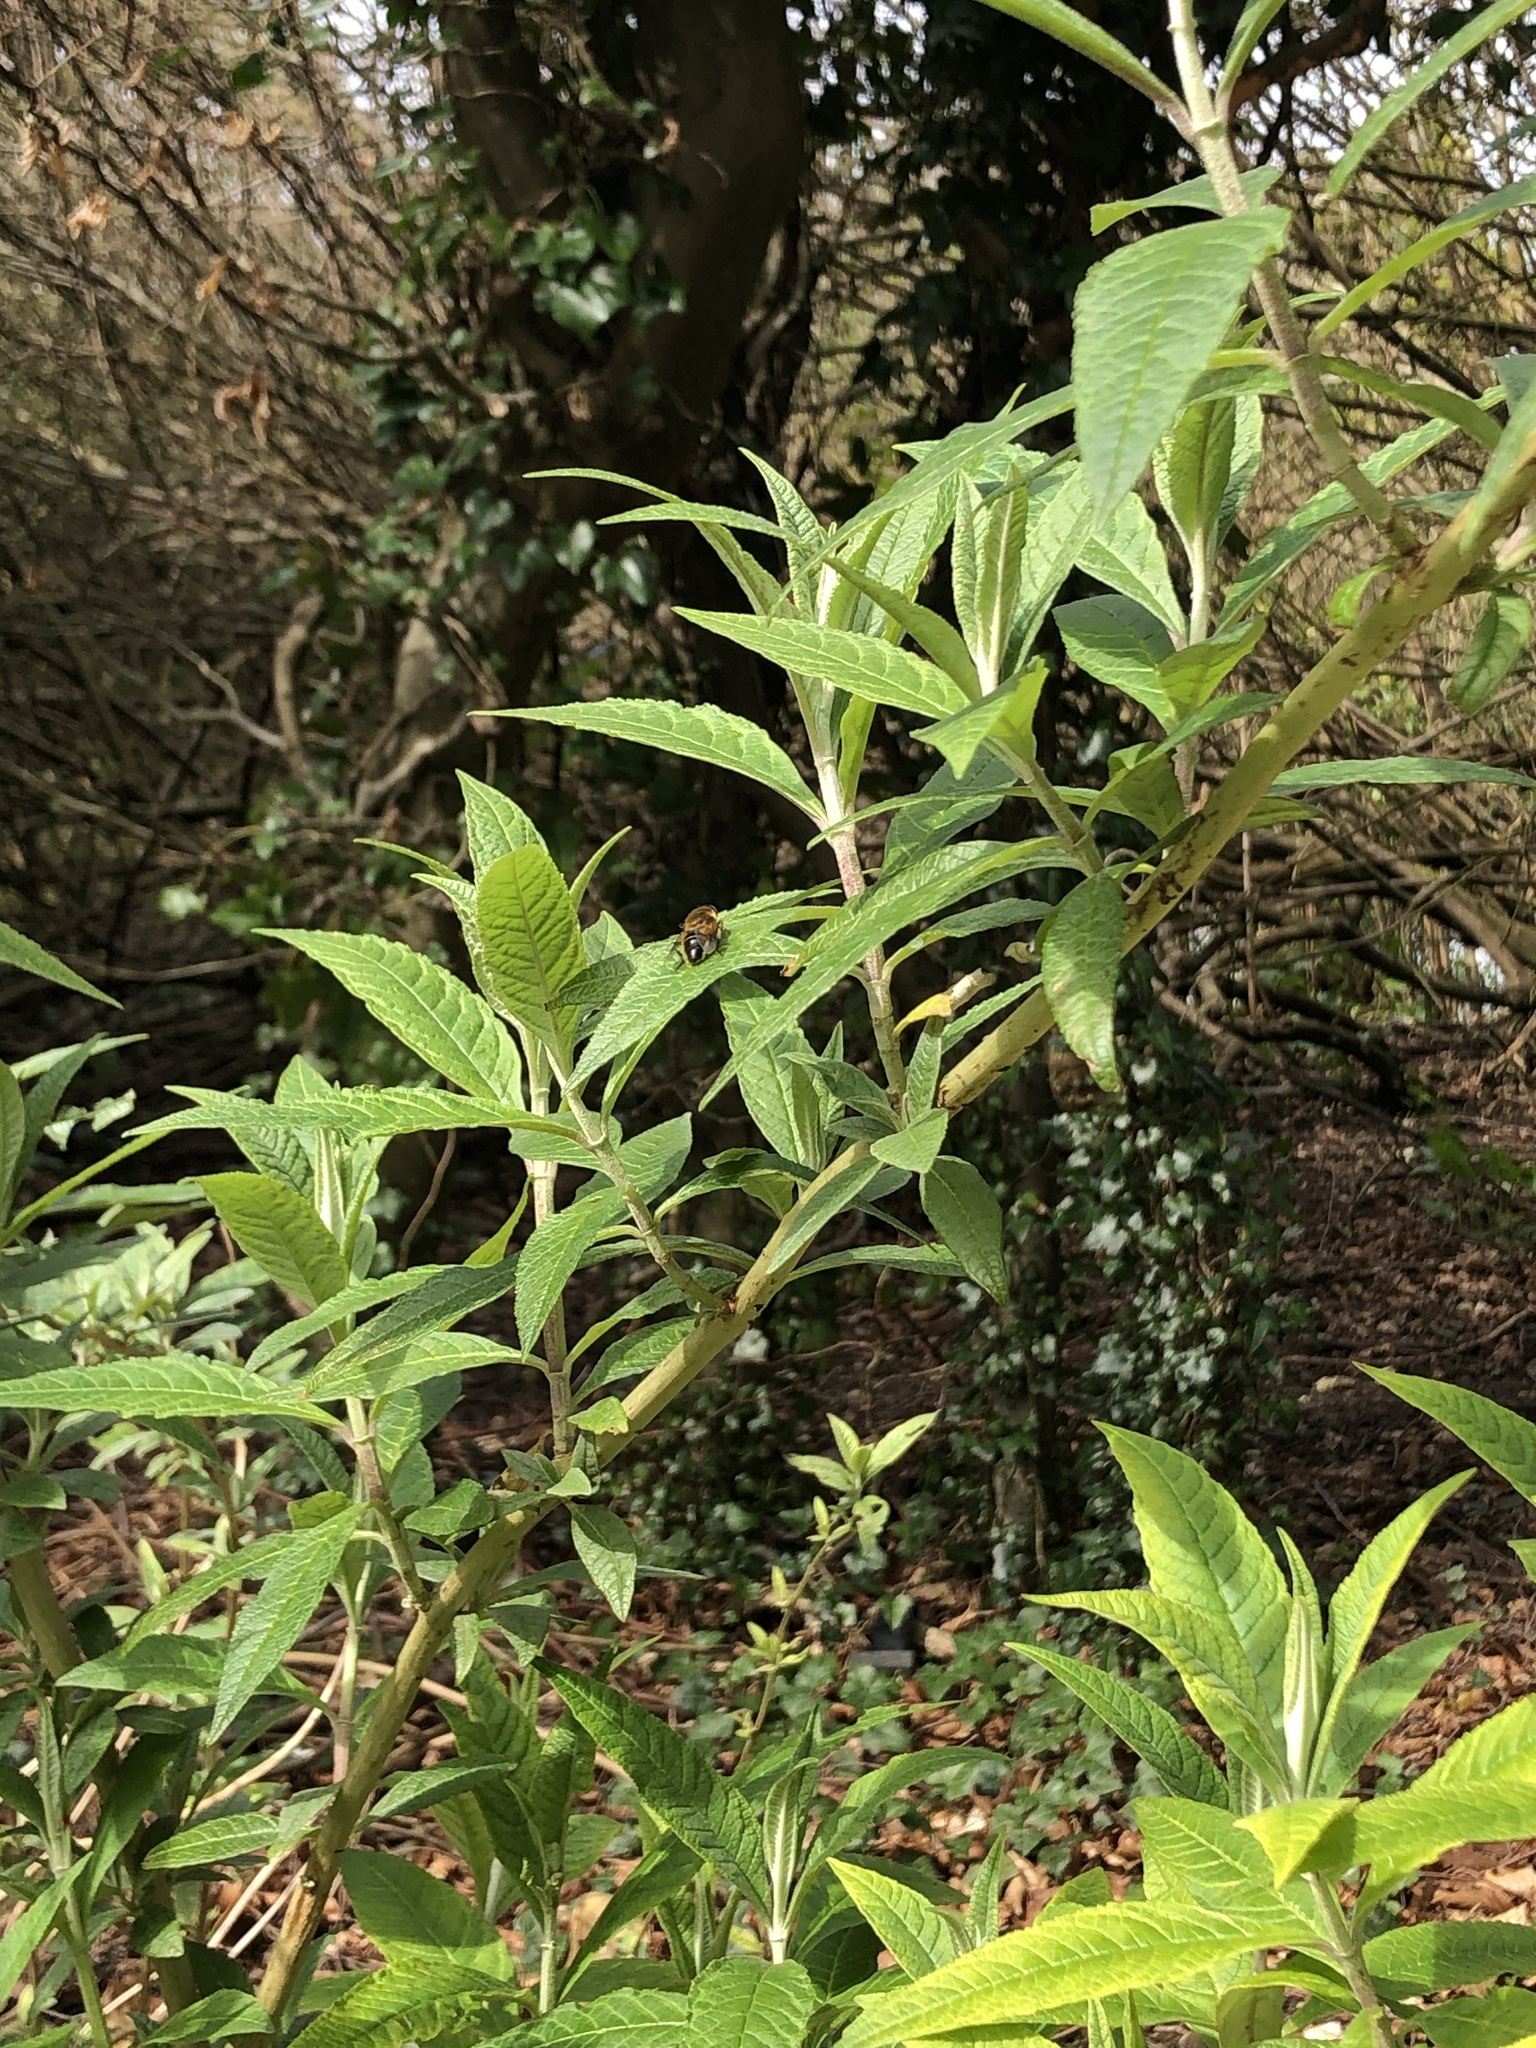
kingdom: Animalia
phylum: Arthropoda
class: Insecta
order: Diptera
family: Syrphidae
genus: Eristalis
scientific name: Eristalis pertinax
